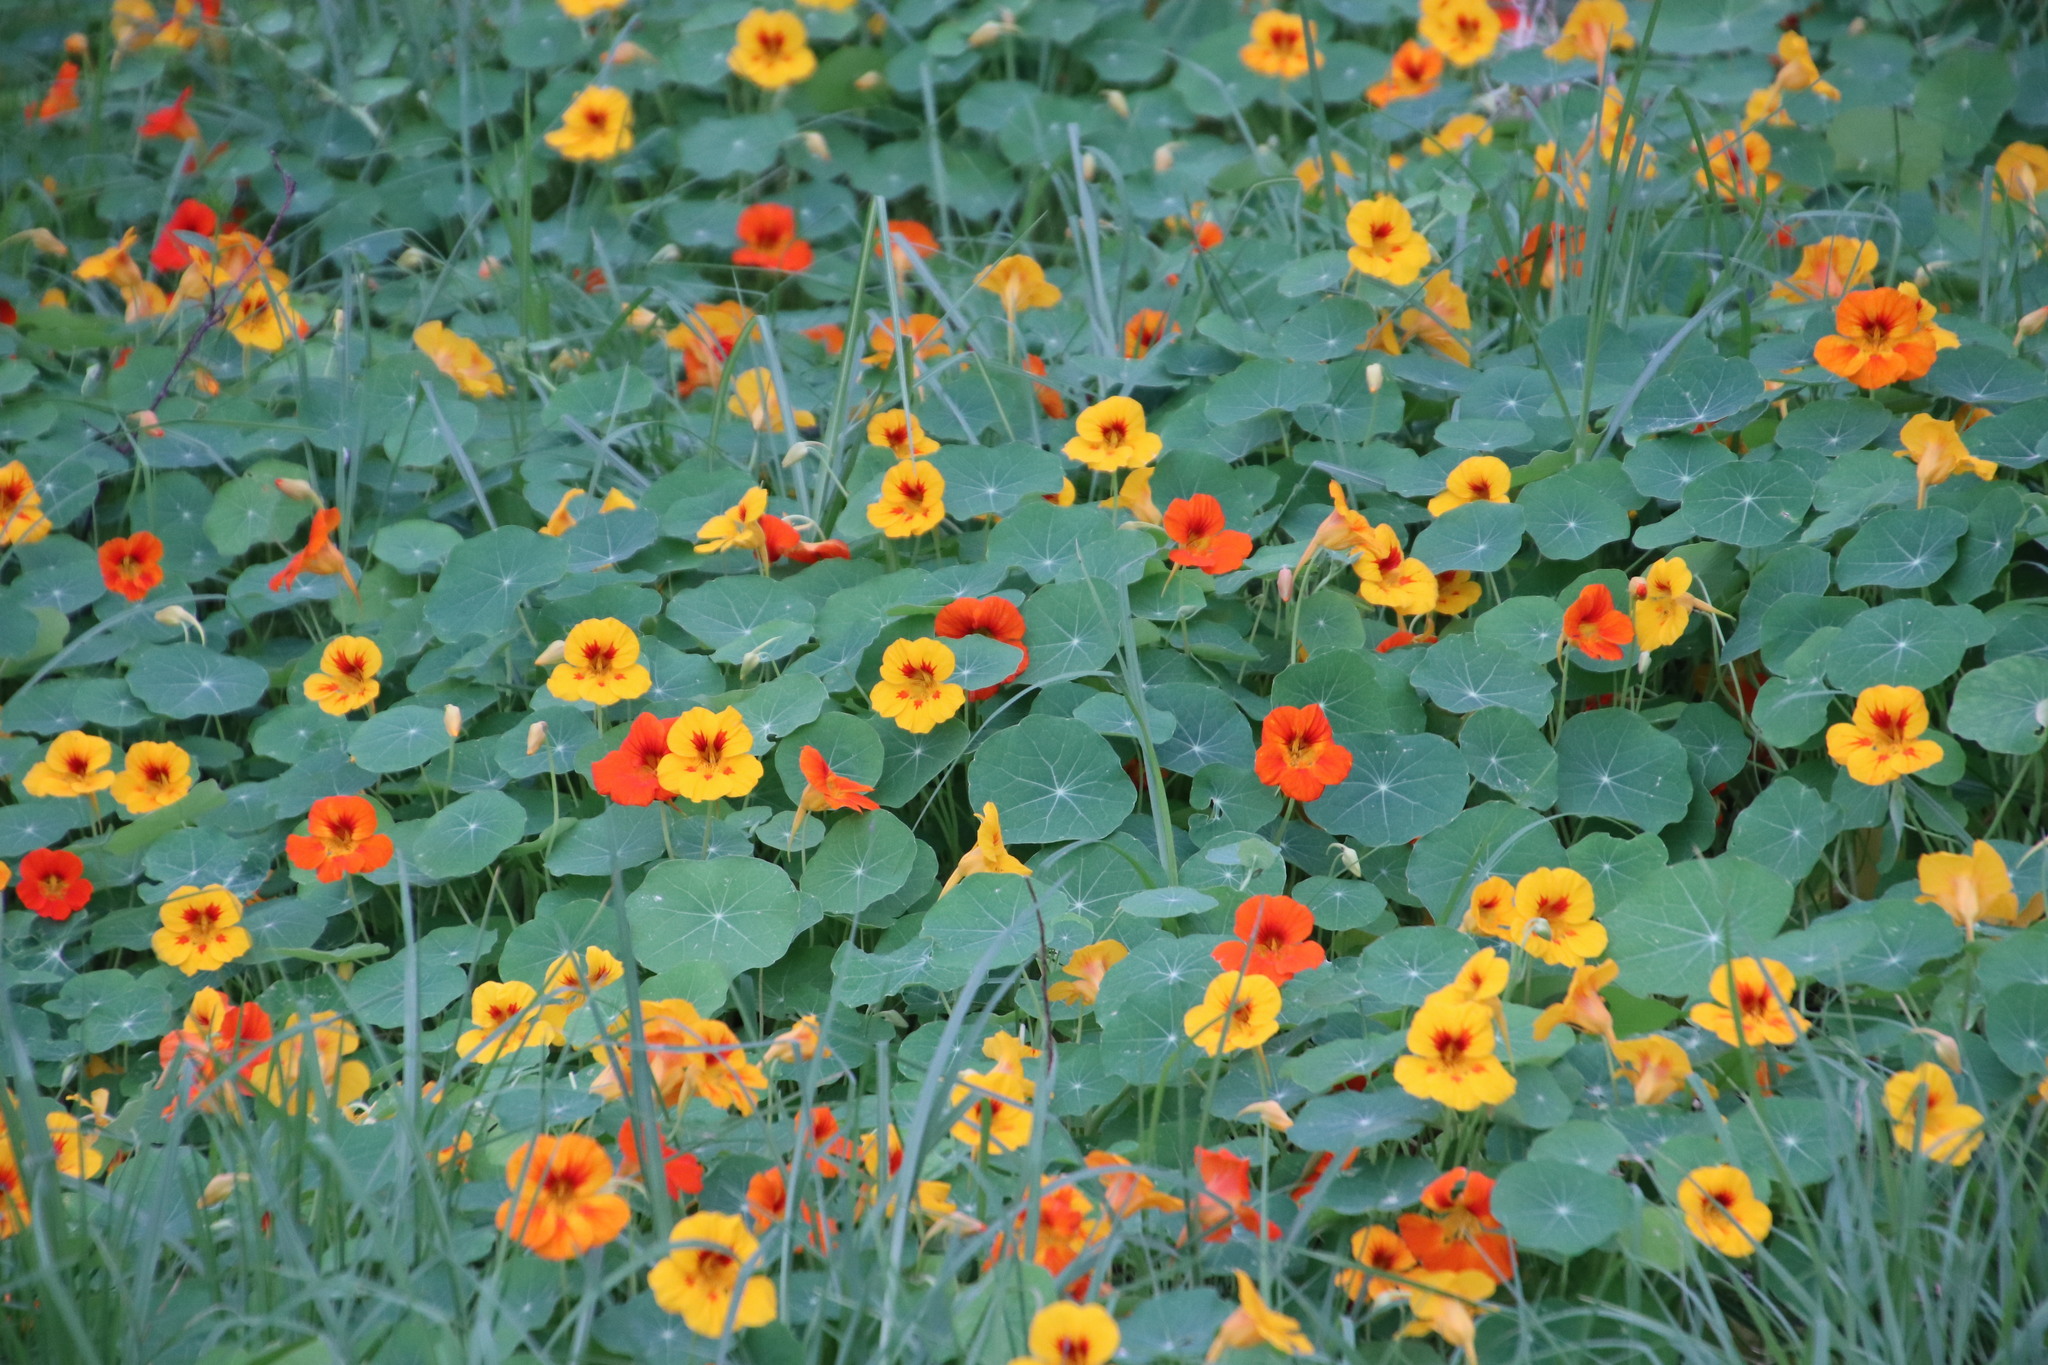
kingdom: Plantae
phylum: Tracheophyta
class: Magnoliopsida
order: Brassicales
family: Tropaeolaceae
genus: Tropaeolum
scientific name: Tropaeolum majus
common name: Nasturtium
